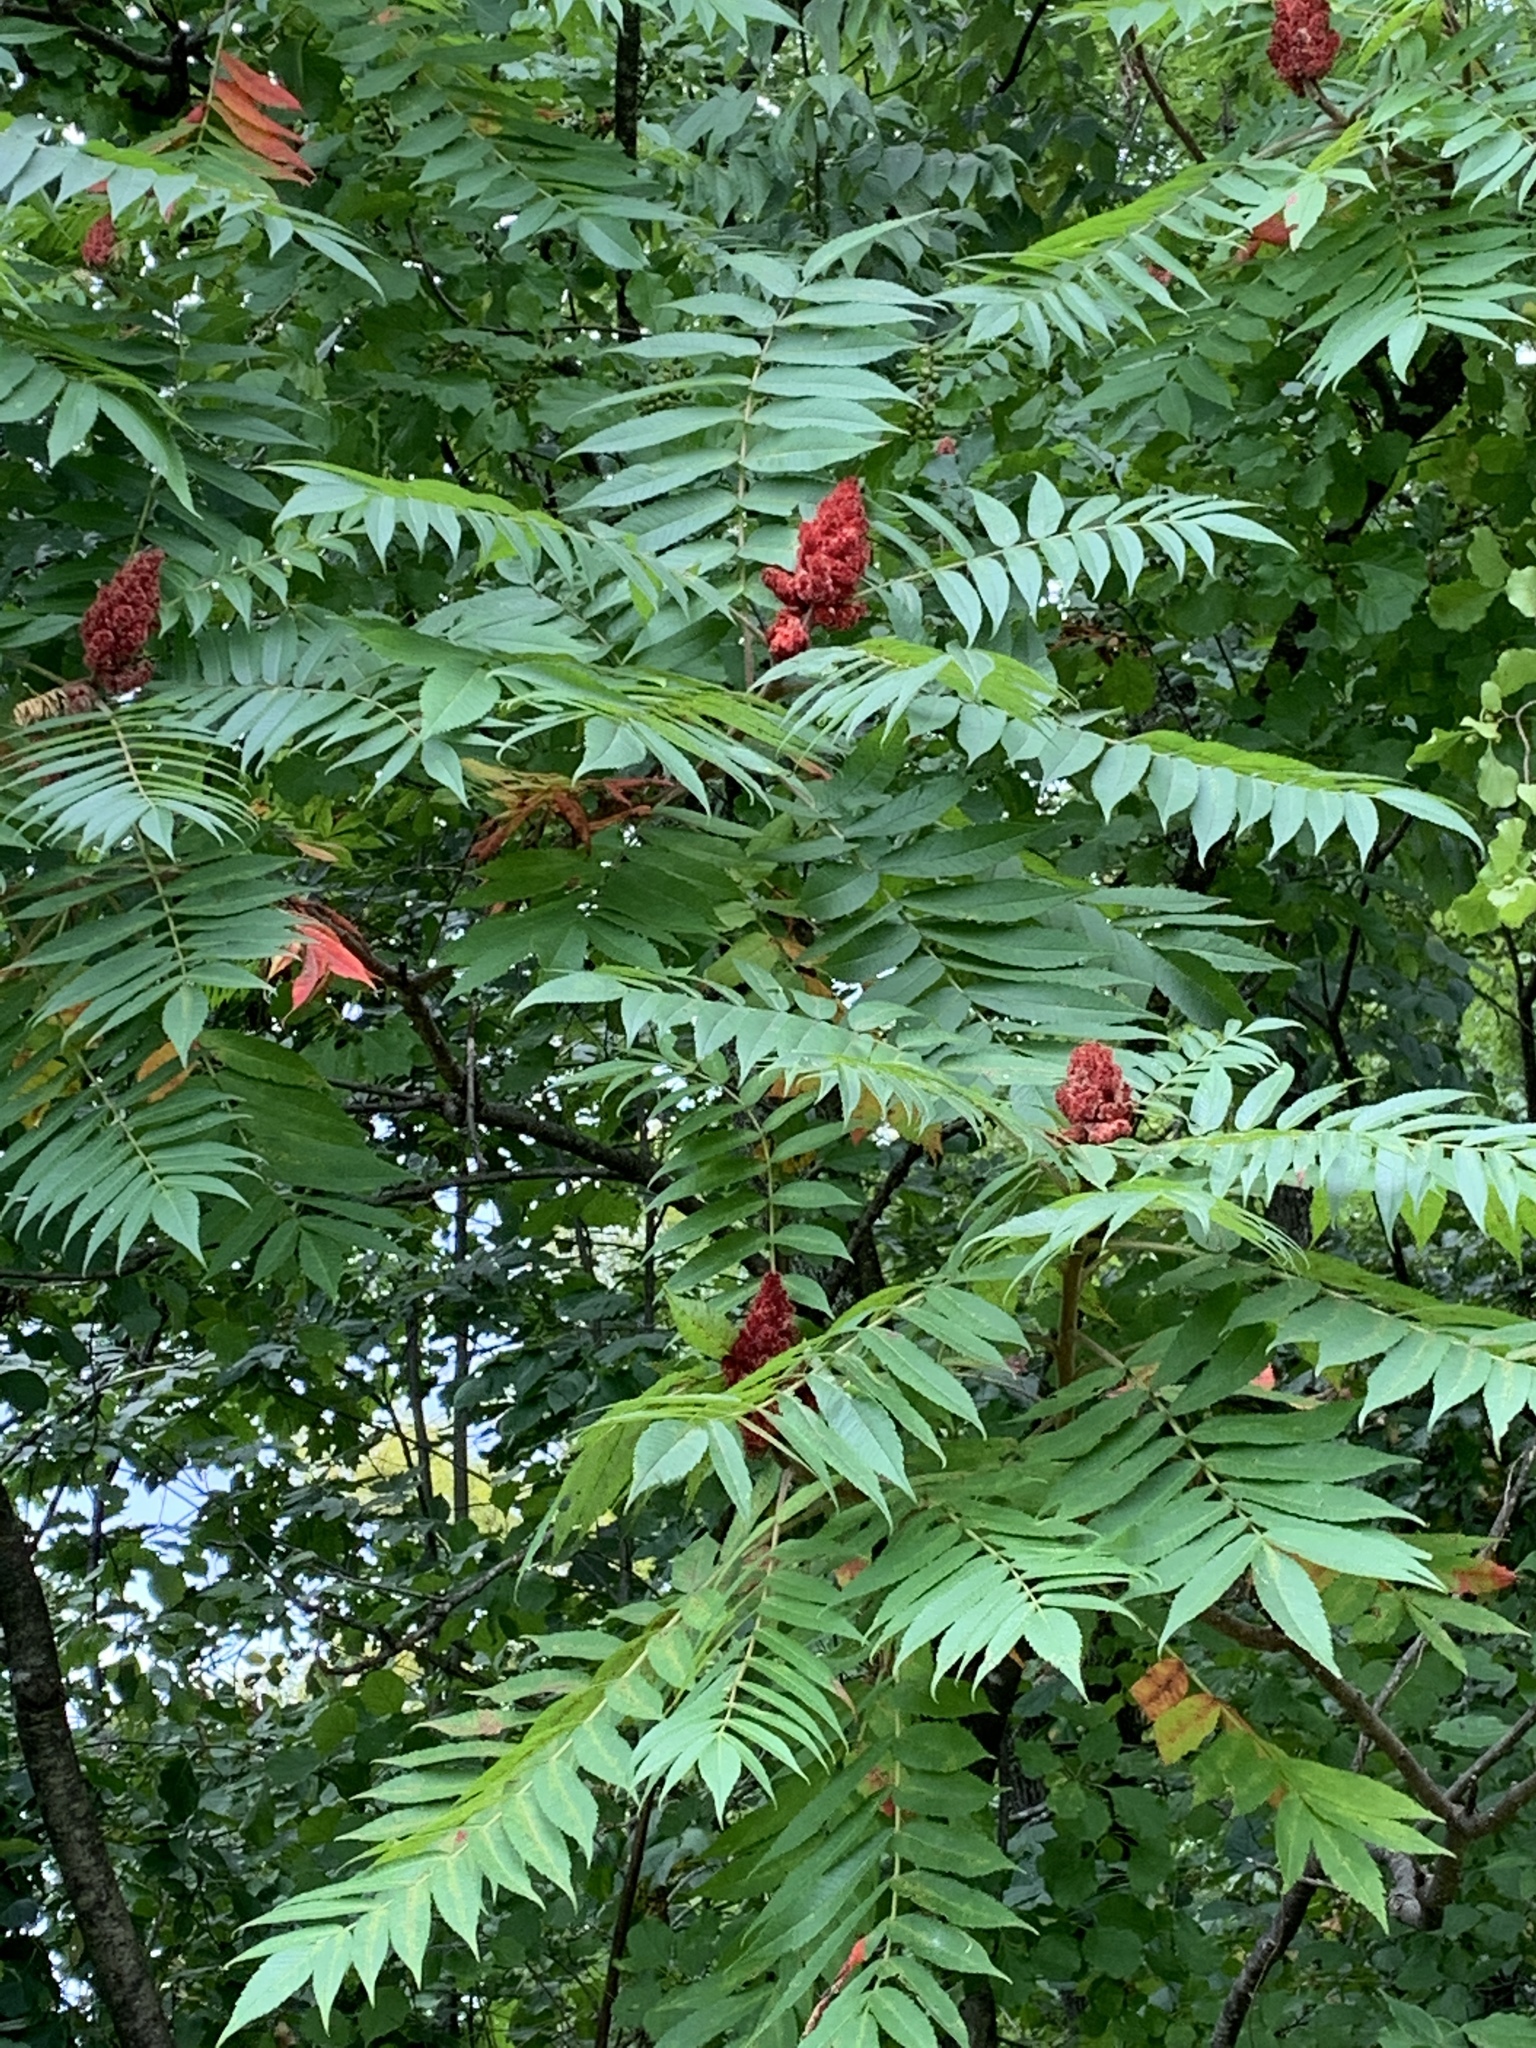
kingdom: Plantae
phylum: Tracheophyta
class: Magnoliopsida
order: Sapindales
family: Anacardiaceae
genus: Rhus
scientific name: Rhus typhina
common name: Staghorn sumac
